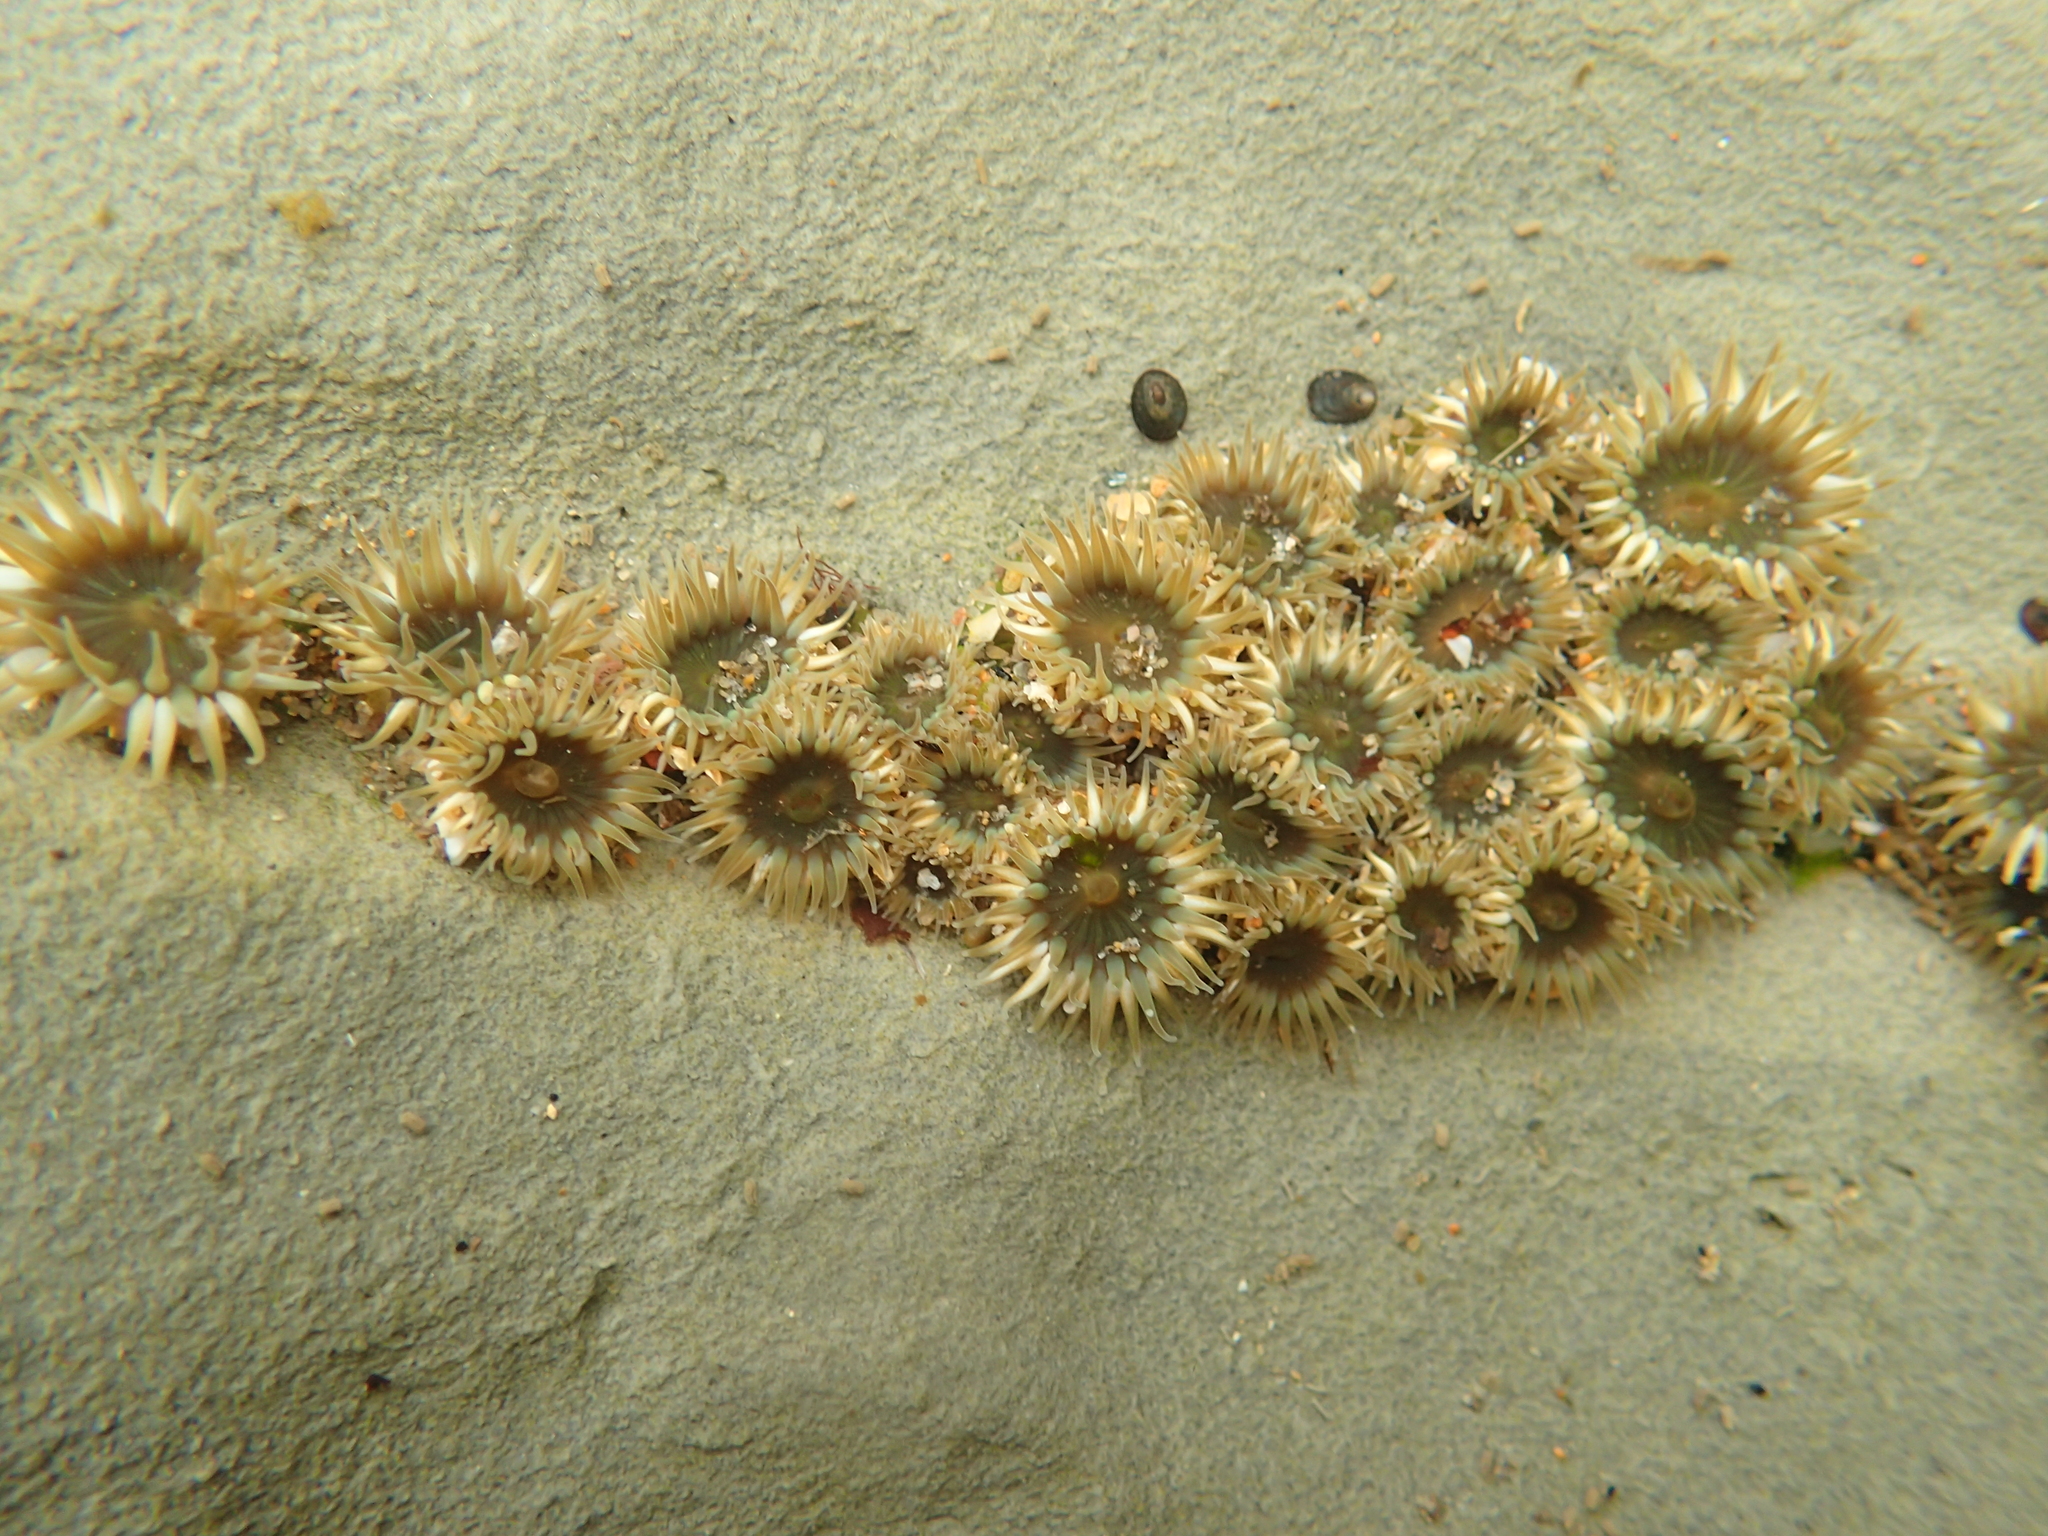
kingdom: Animalia
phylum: Cnidaria
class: Anthozoa
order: Actiniaria
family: Actiniidae
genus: Anthopleura
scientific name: Anthopleura elegantissima
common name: Clonal anemone
